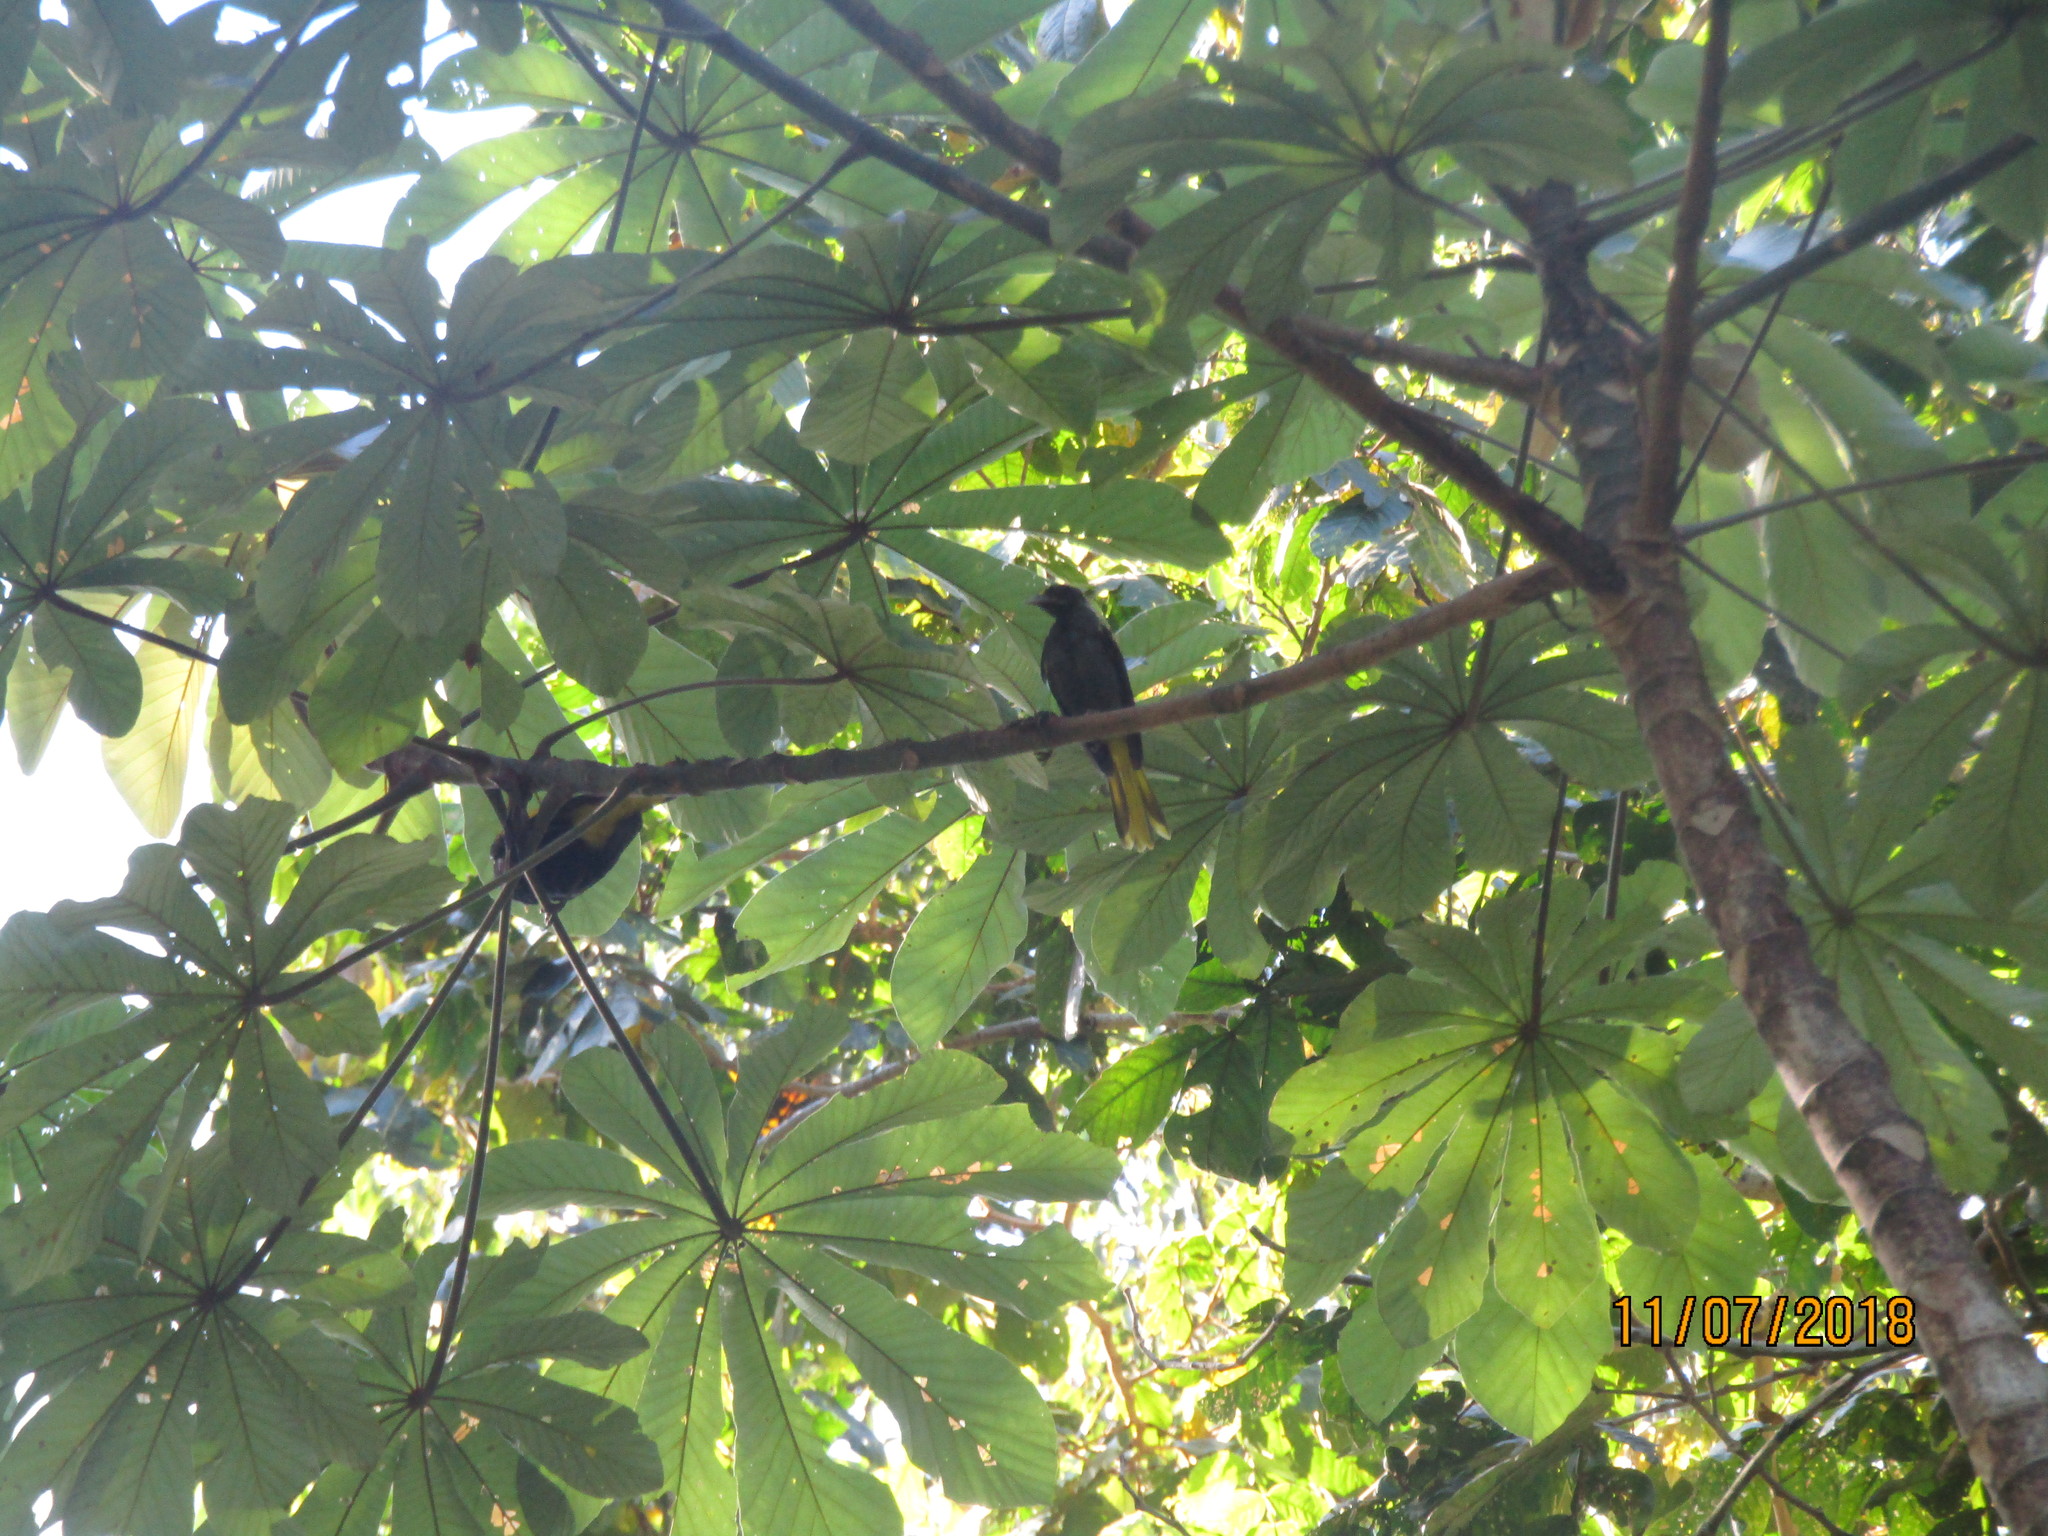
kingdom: Animalia
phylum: Chordata
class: Aves
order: Passeriformes
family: Icteridae
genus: Cacicus
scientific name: Cacicus melanicterus
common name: Yellow-winged cacique
